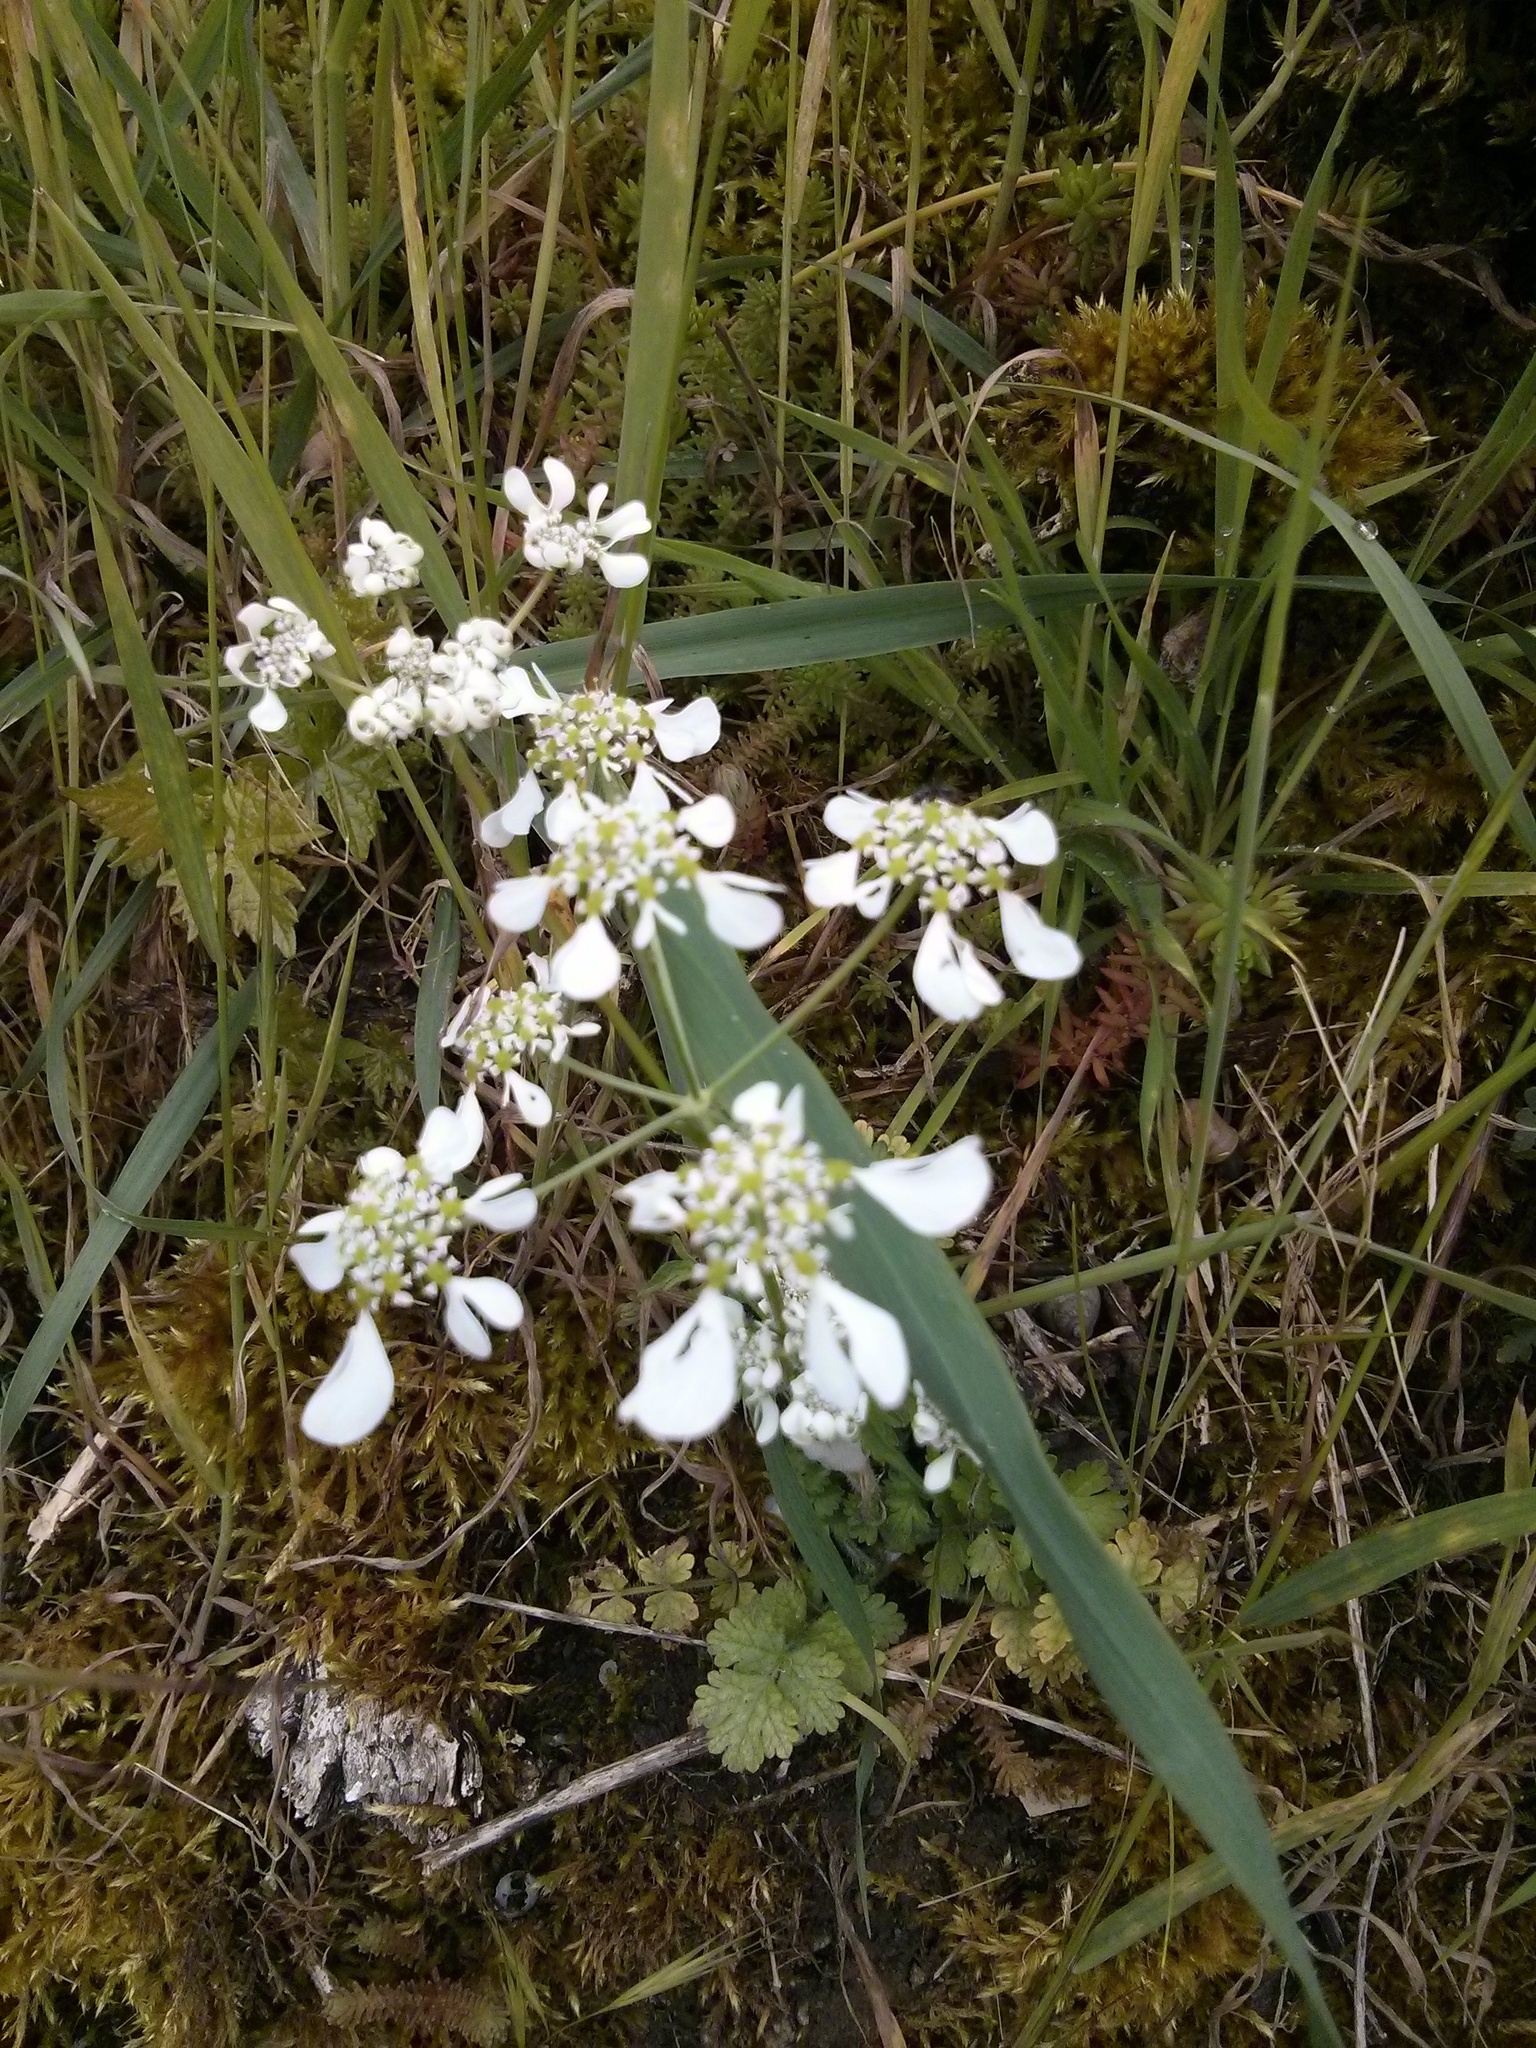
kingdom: Plantae
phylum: Tracheophyta
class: Magnoliopsida
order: Apiales
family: Apiaceae
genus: Tordylium
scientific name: Tordylium apulum
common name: Mediterranean hartwort
